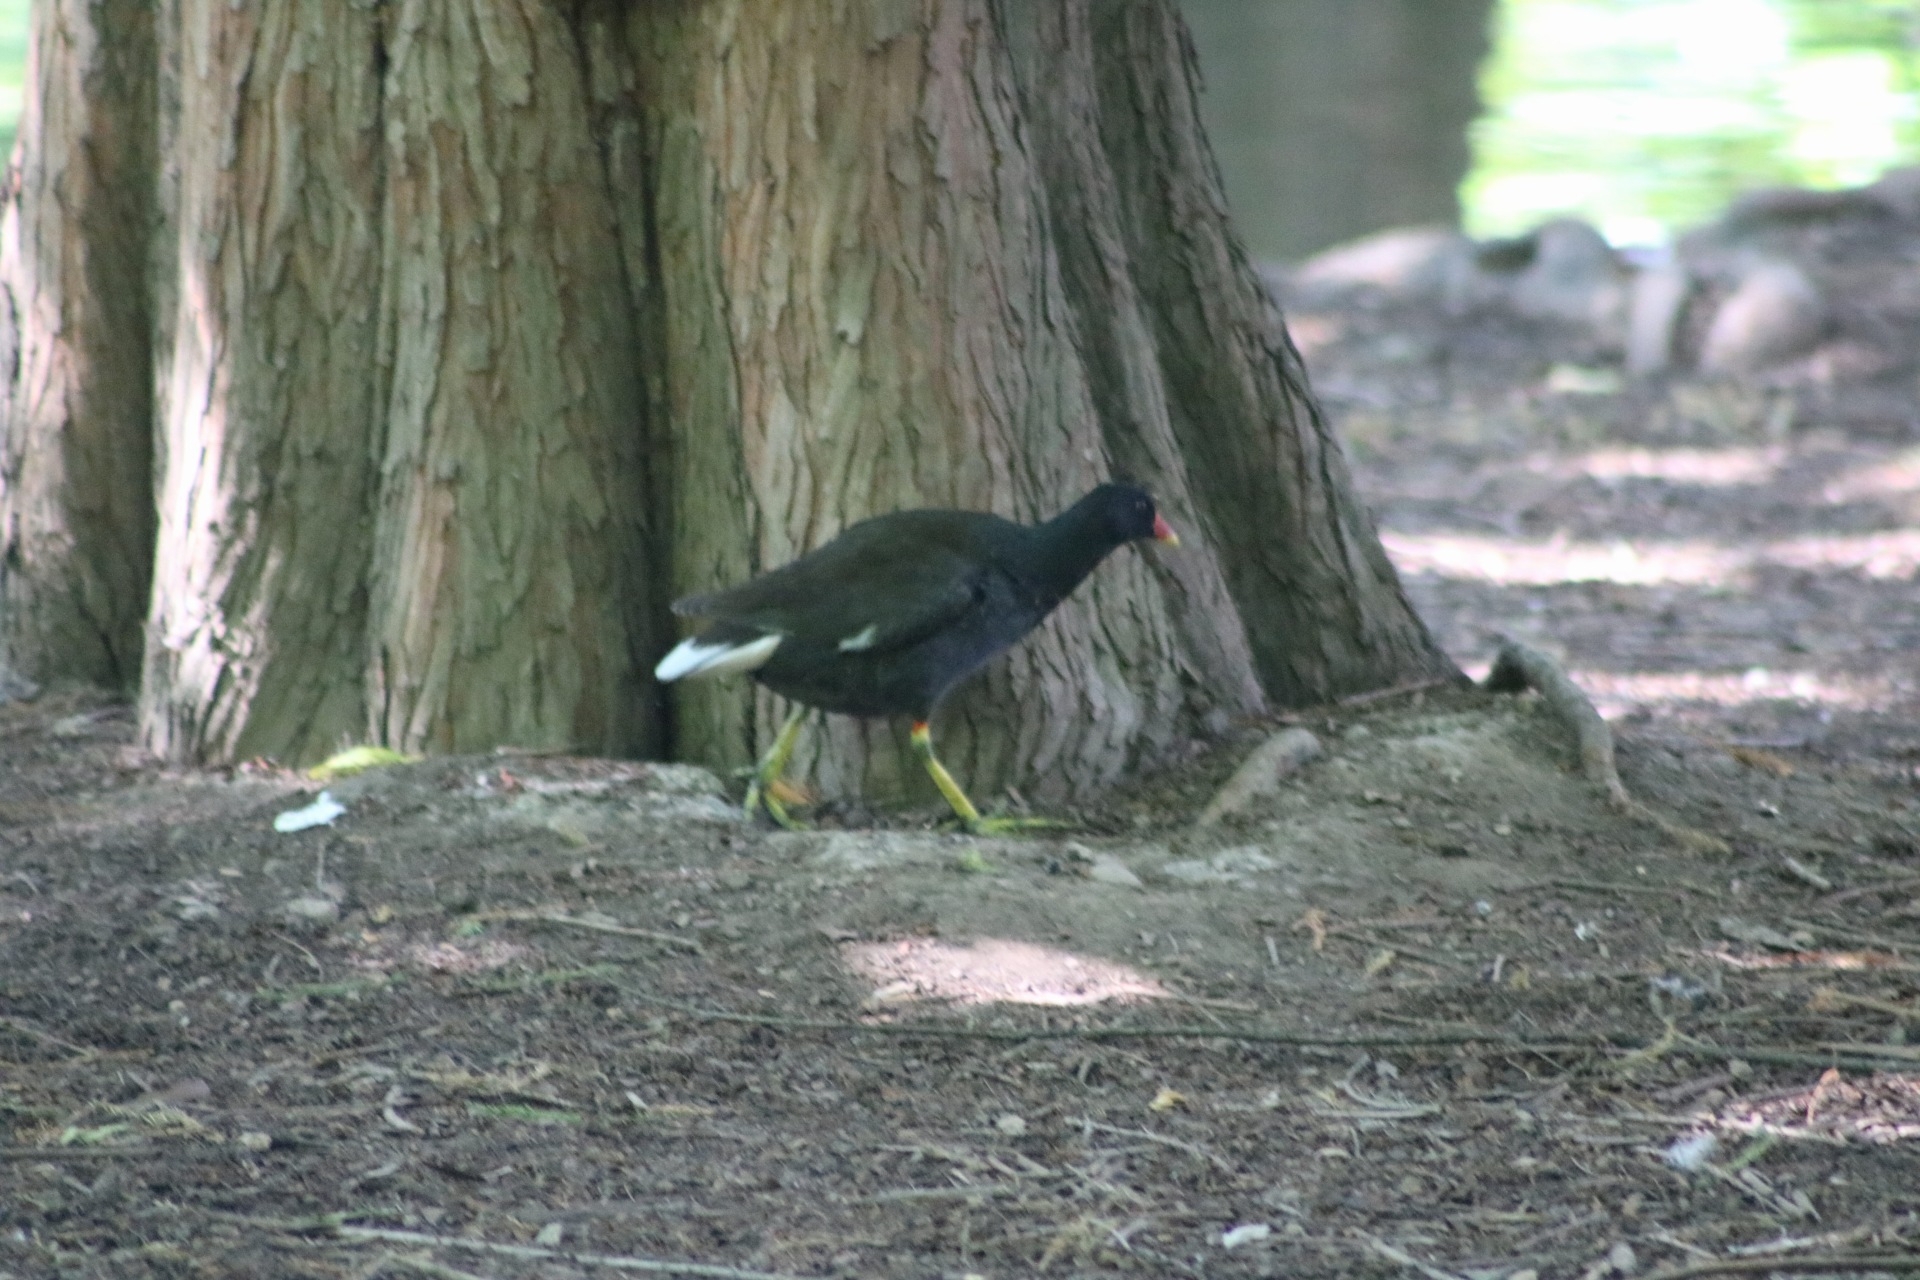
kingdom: Animalia
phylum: Chordata
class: Aves
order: Gruiformes
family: Rallidae
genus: Gallinula
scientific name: Gallinula chloropus
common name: Common moorhen
